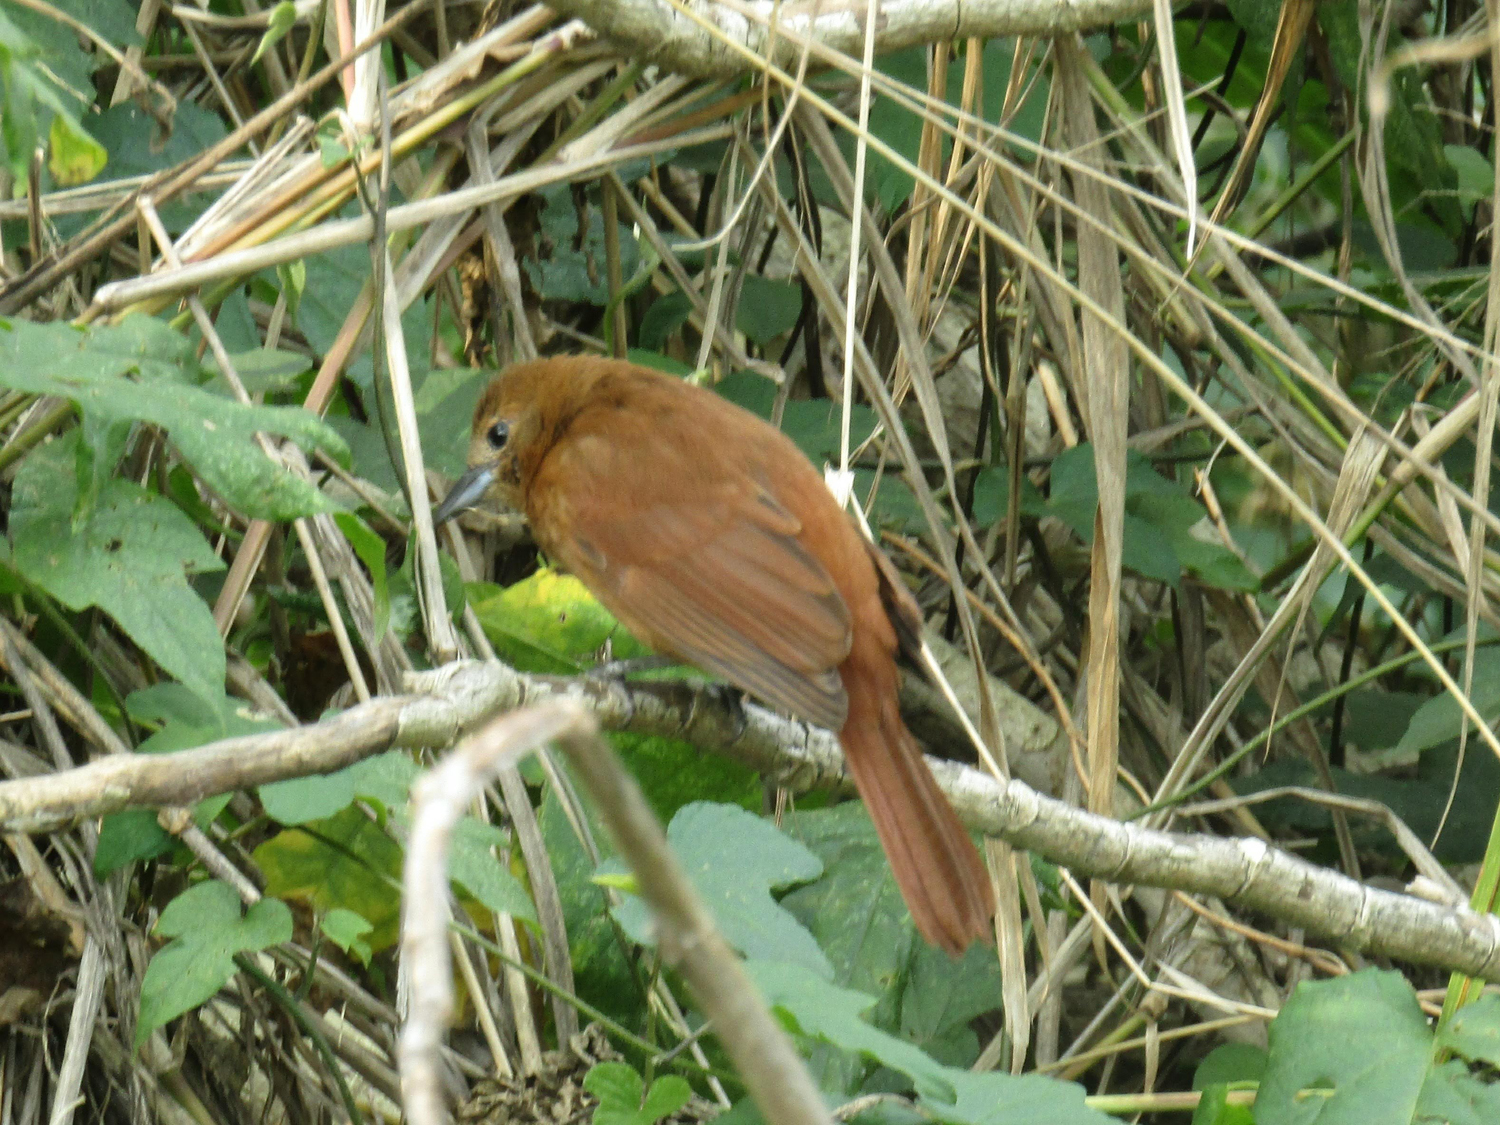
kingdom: Animalia
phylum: Chordata
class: Aves
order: Passeriformes
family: Thraupidae
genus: Tachyphonus
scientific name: Tachyphonus rufus
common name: White-lined tanager
